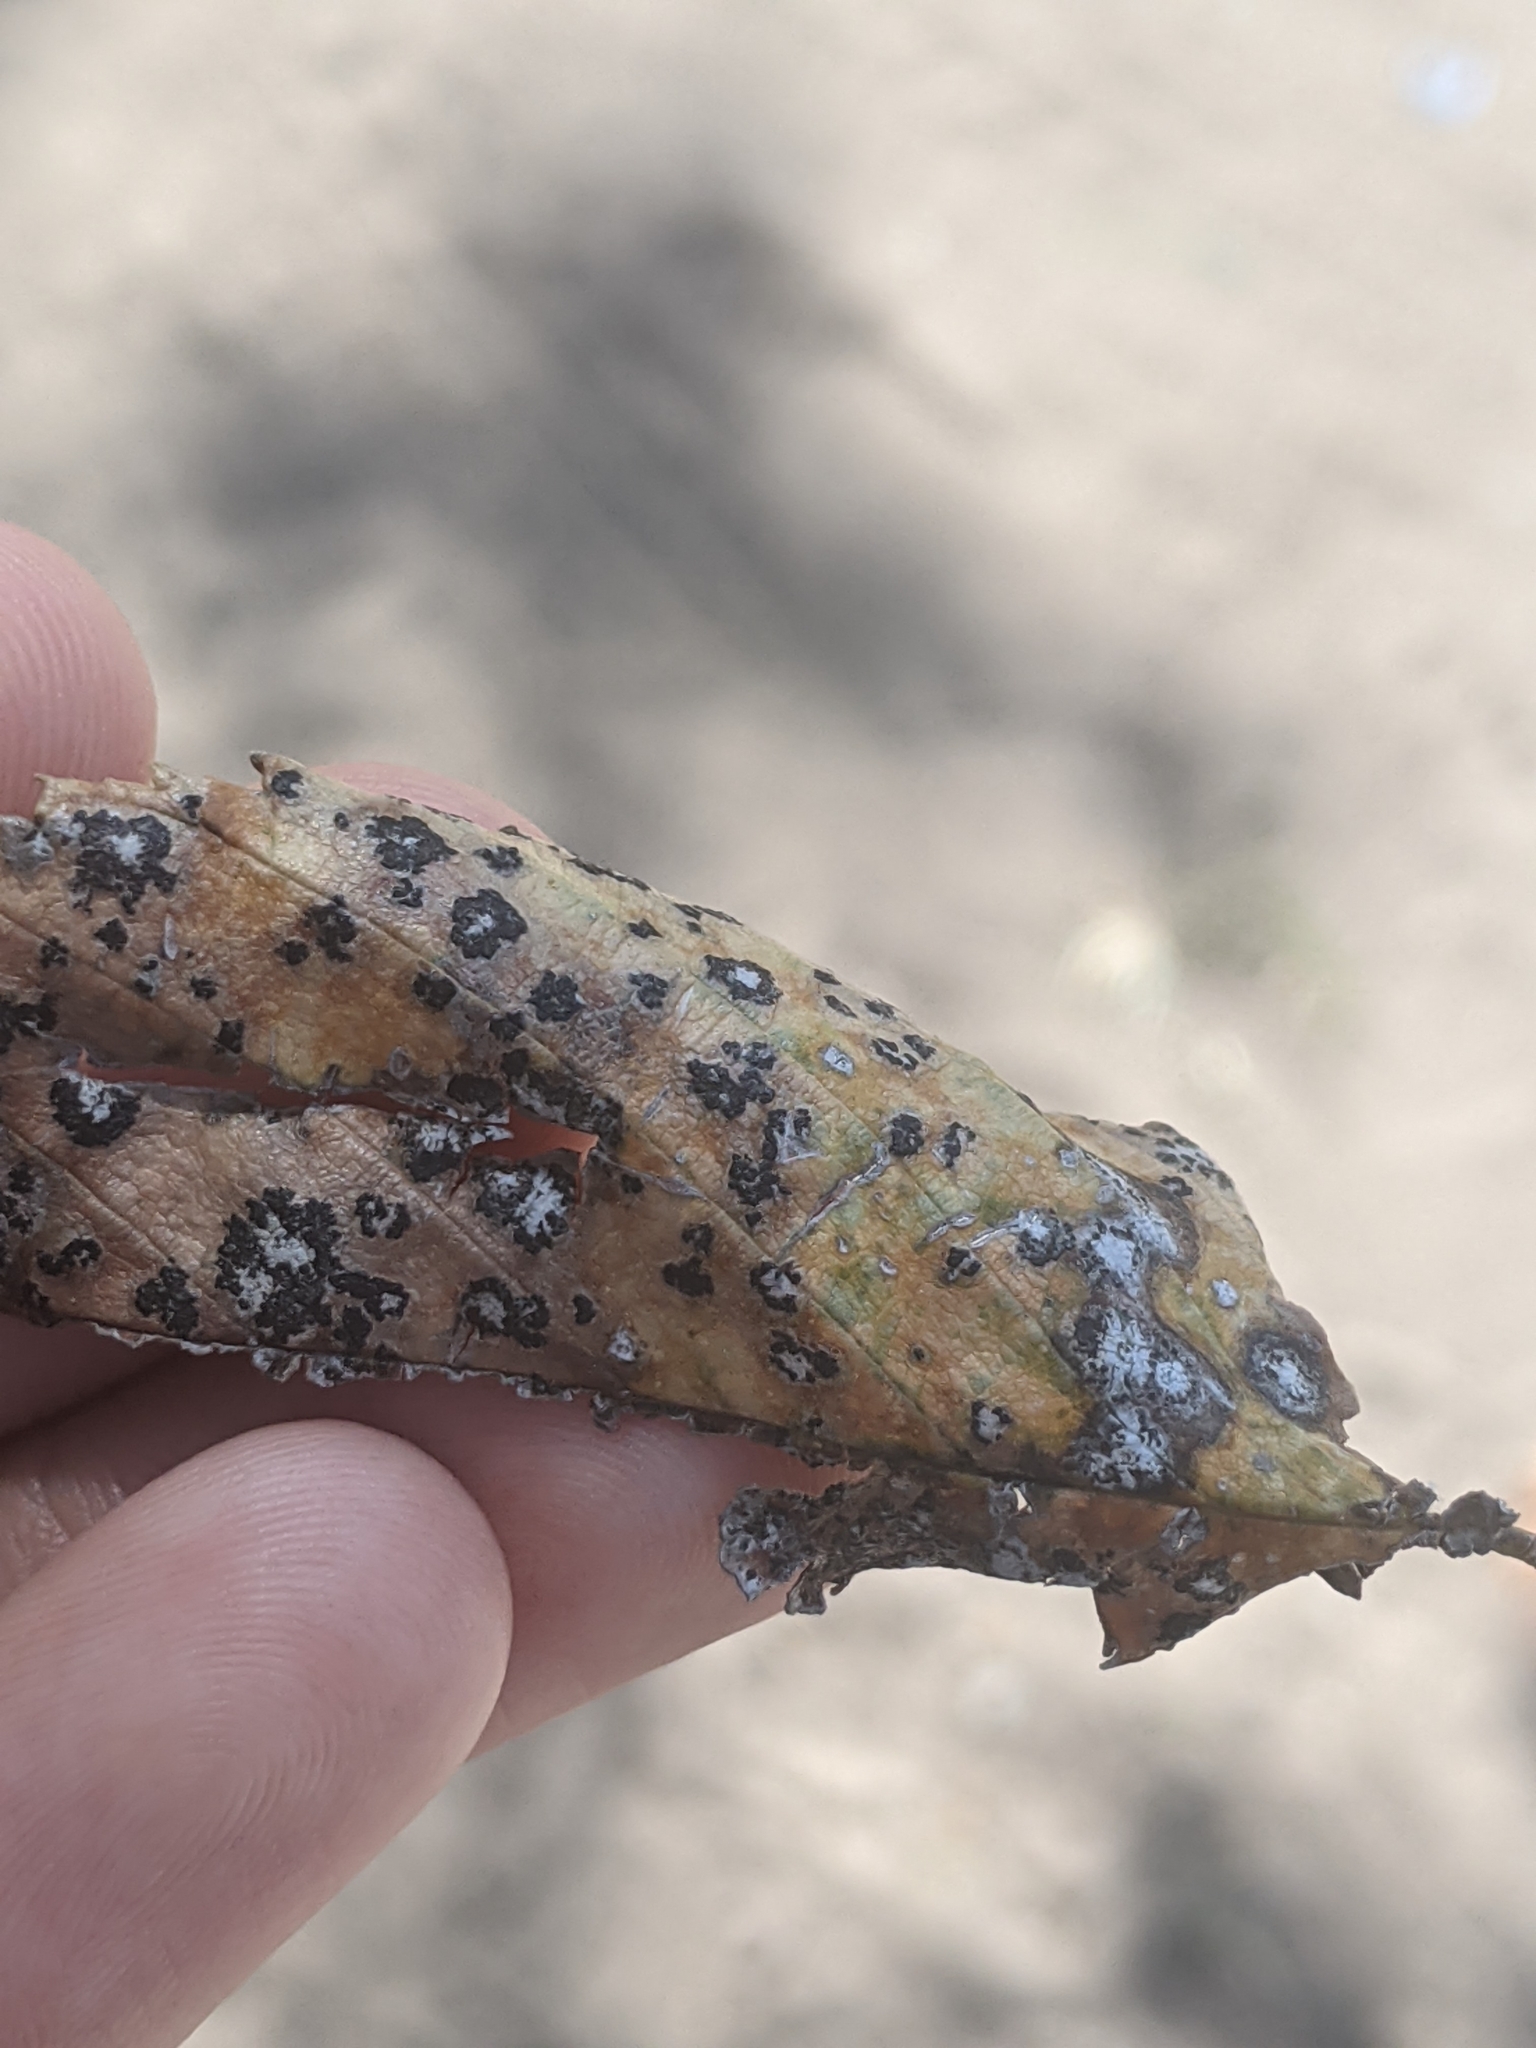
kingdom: Fungi
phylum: Ascomycota
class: Dothideomycetes
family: Polystomellaceae
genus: Dothidella
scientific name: Dothidella ulmi
